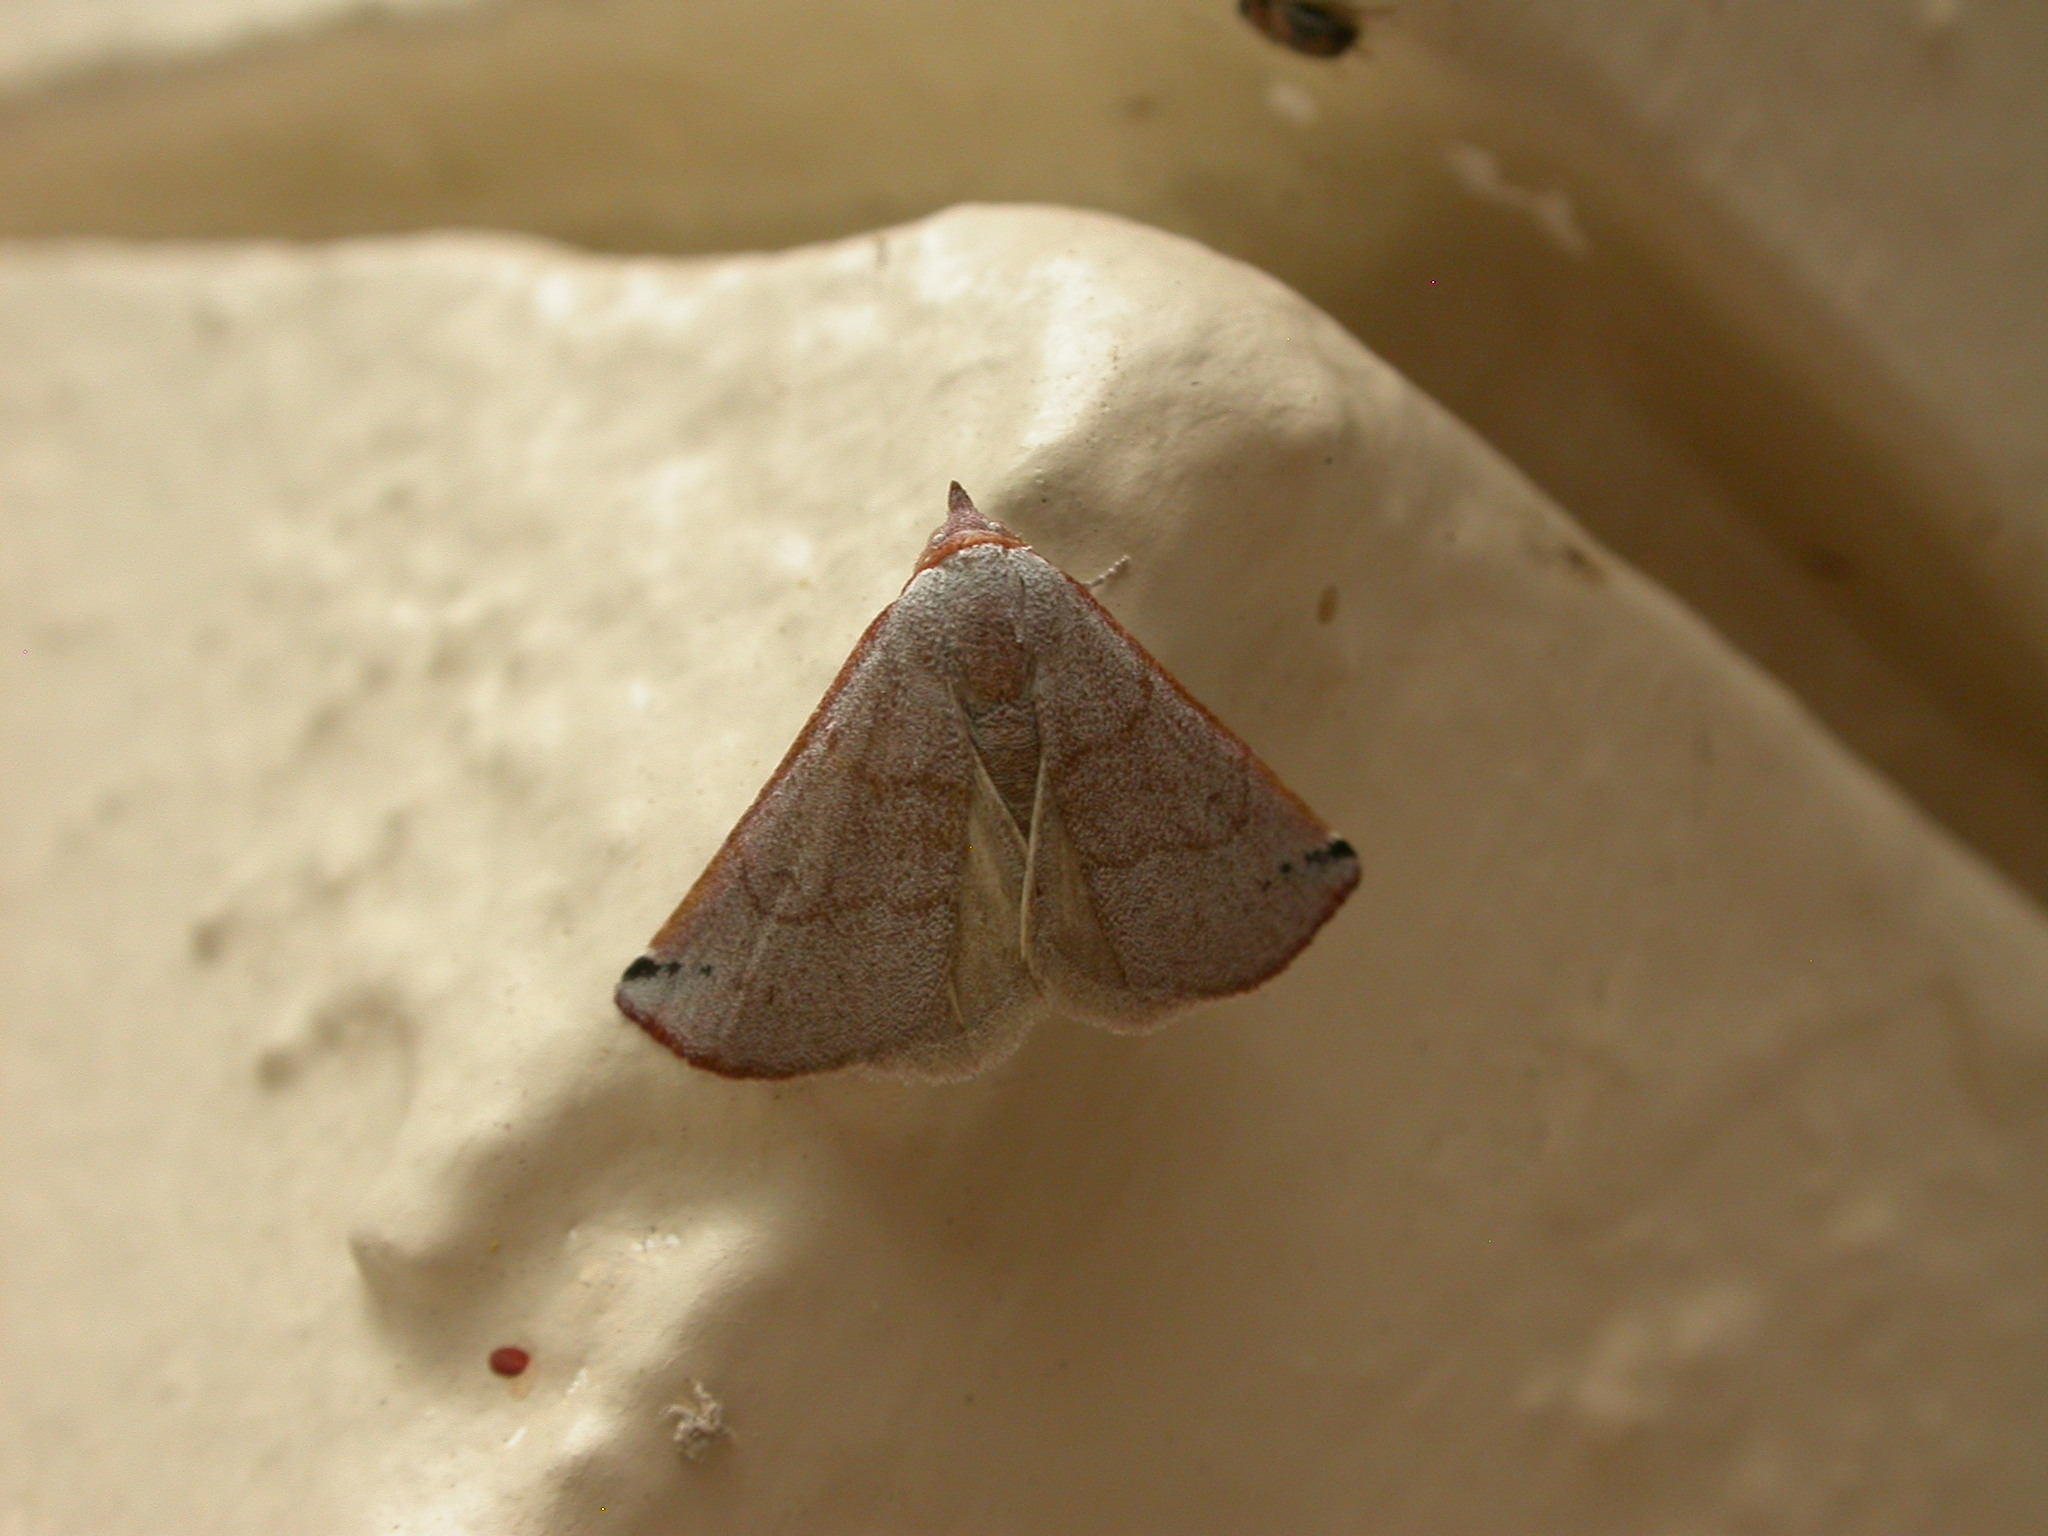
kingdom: Animalia
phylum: Arthropoda
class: Insecta
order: Lepidoptera
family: Noctuidae
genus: Mataeomera
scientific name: Mataeomera ligata
